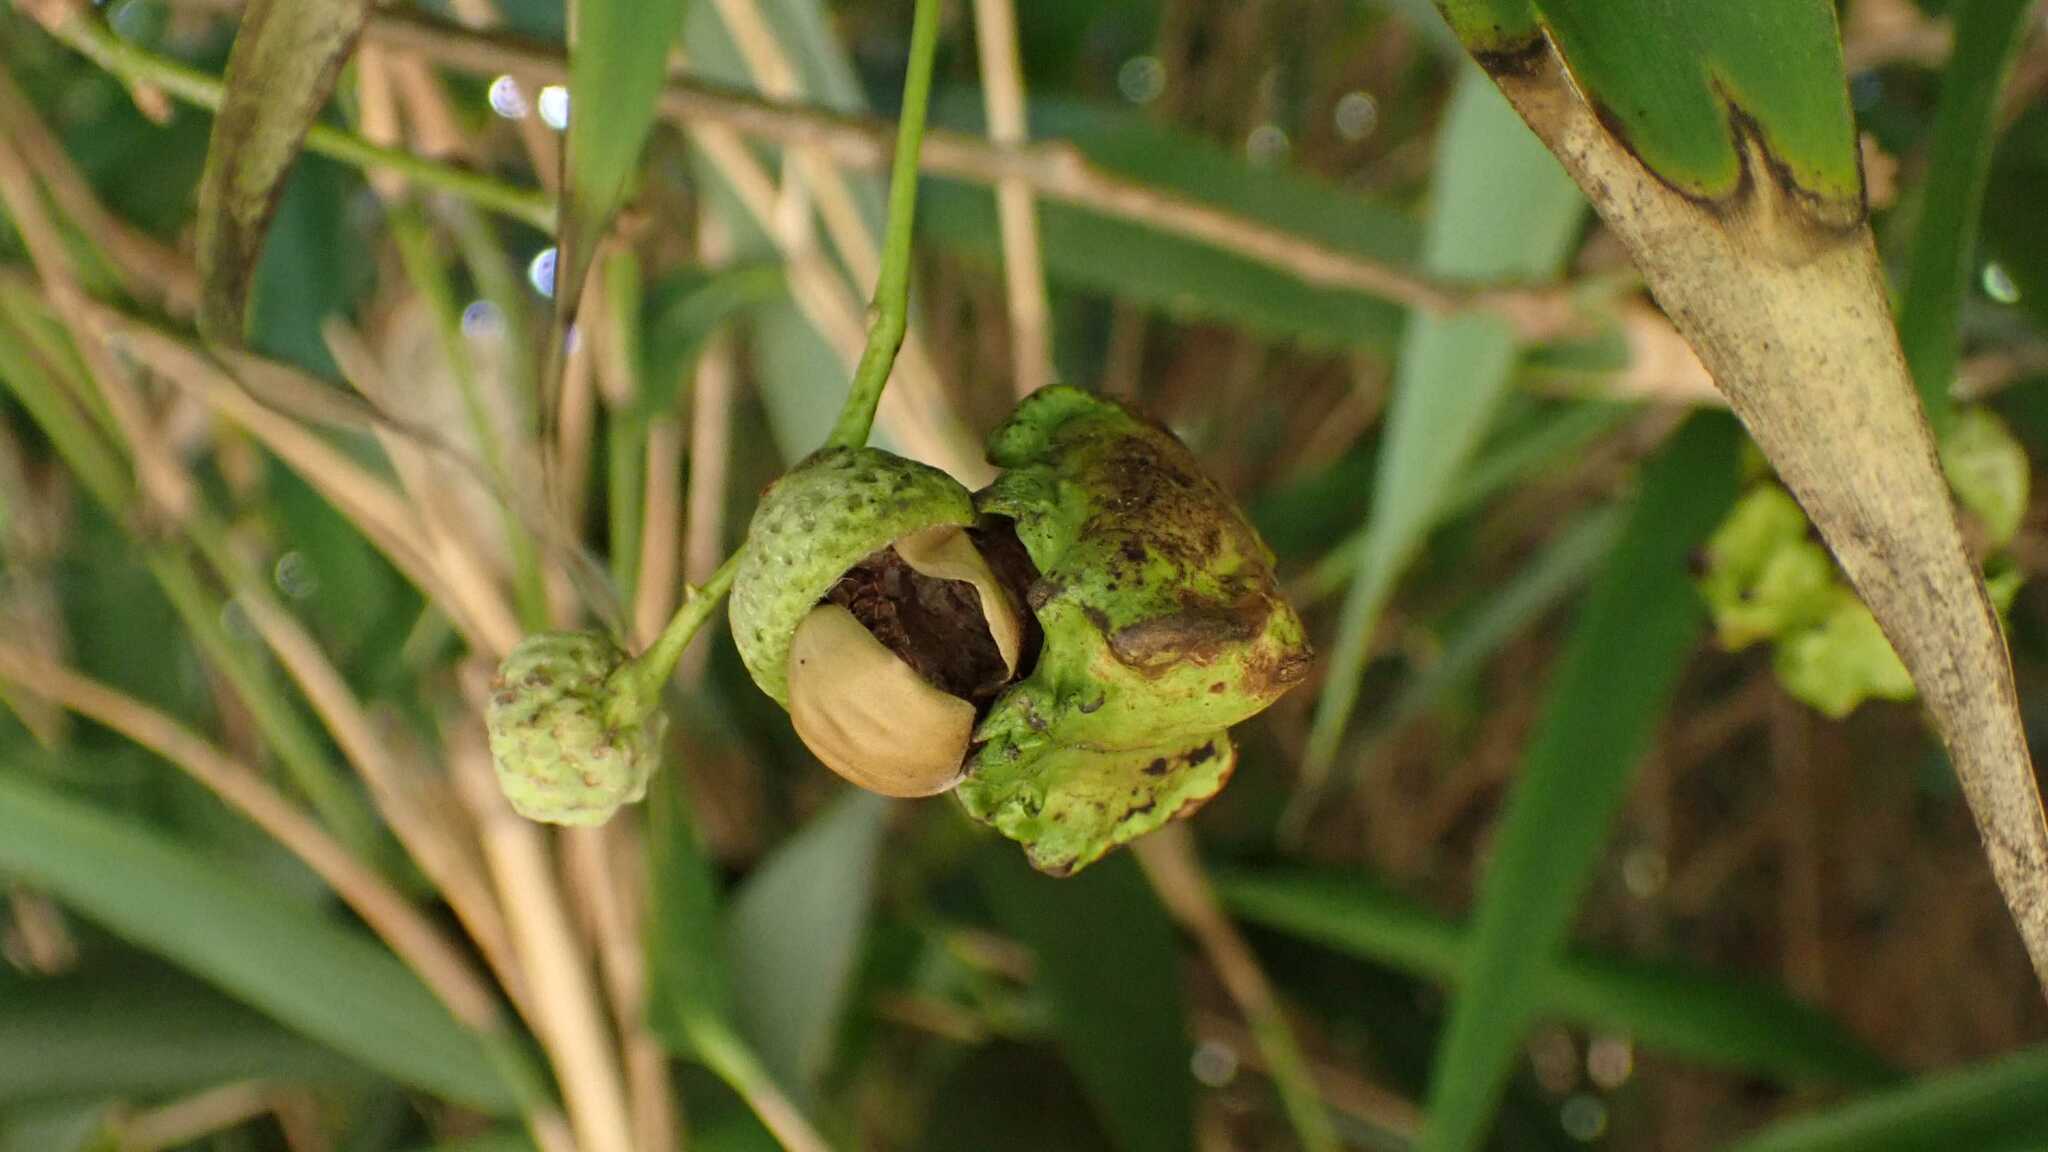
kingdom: Animalia
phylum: Arthropoda
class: Insecta
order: Hymenoptera
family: Cynipidae
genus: Andricus
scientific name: Andricus quercuscalicis
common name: Knopper gall
